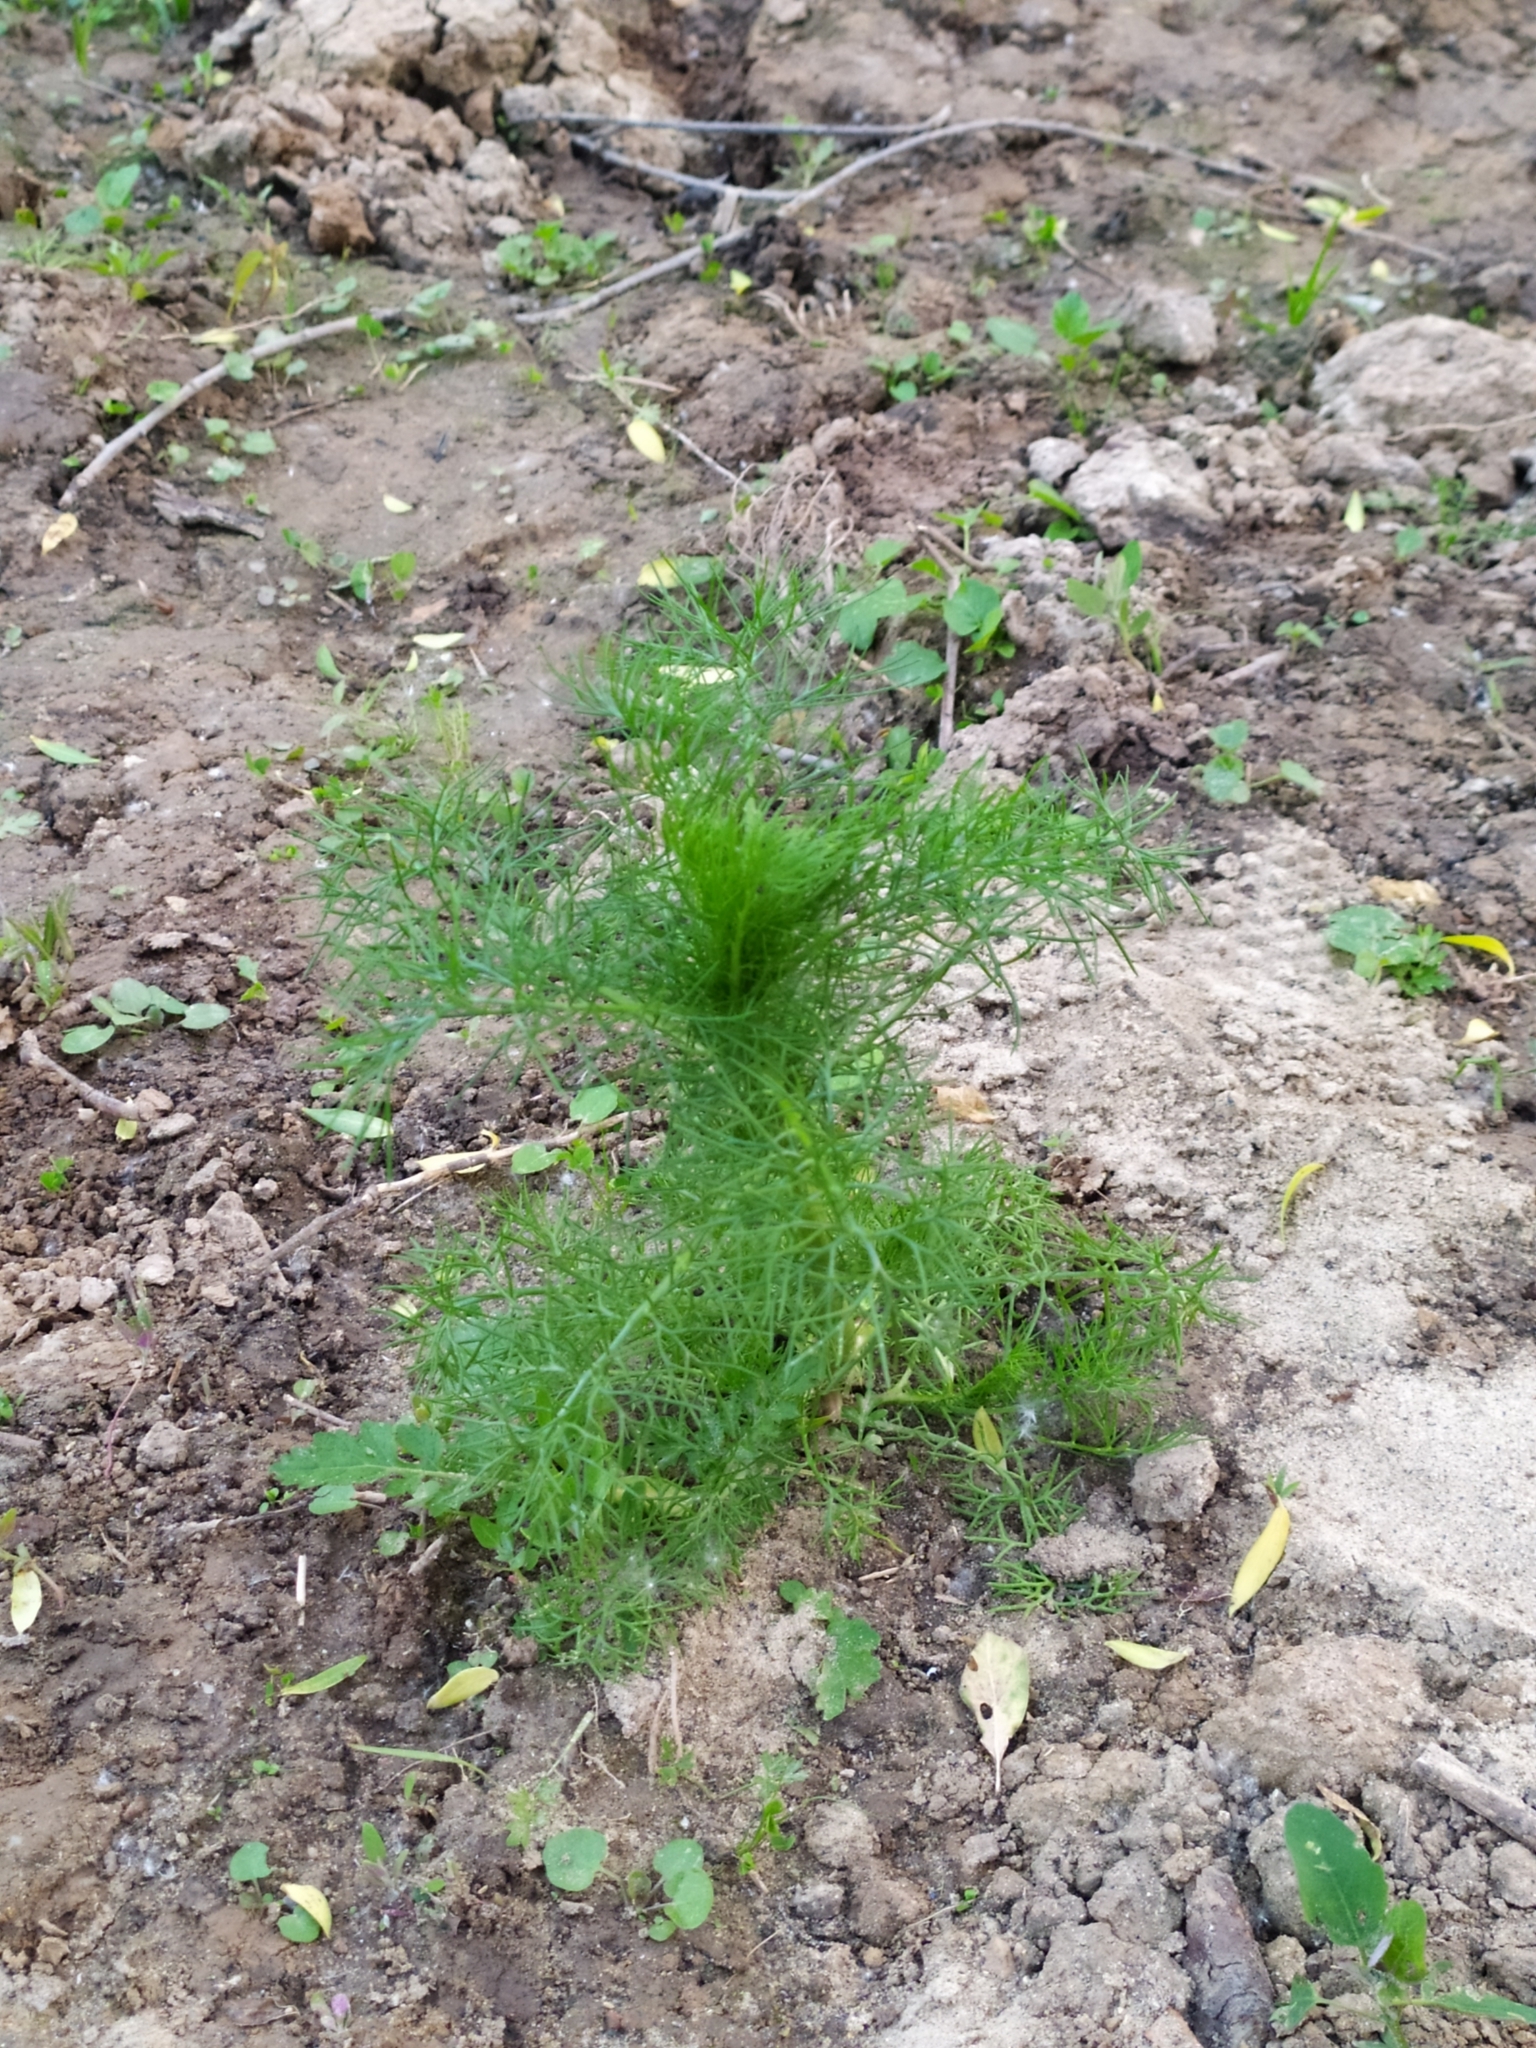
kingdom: Plantae
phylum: Tracheophyta
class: Magnoliopsida
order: Asterales
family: Asteraceae
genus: Tripleurospermum
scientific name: Tripleurospermum inodorum
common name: Scentless mayweed
